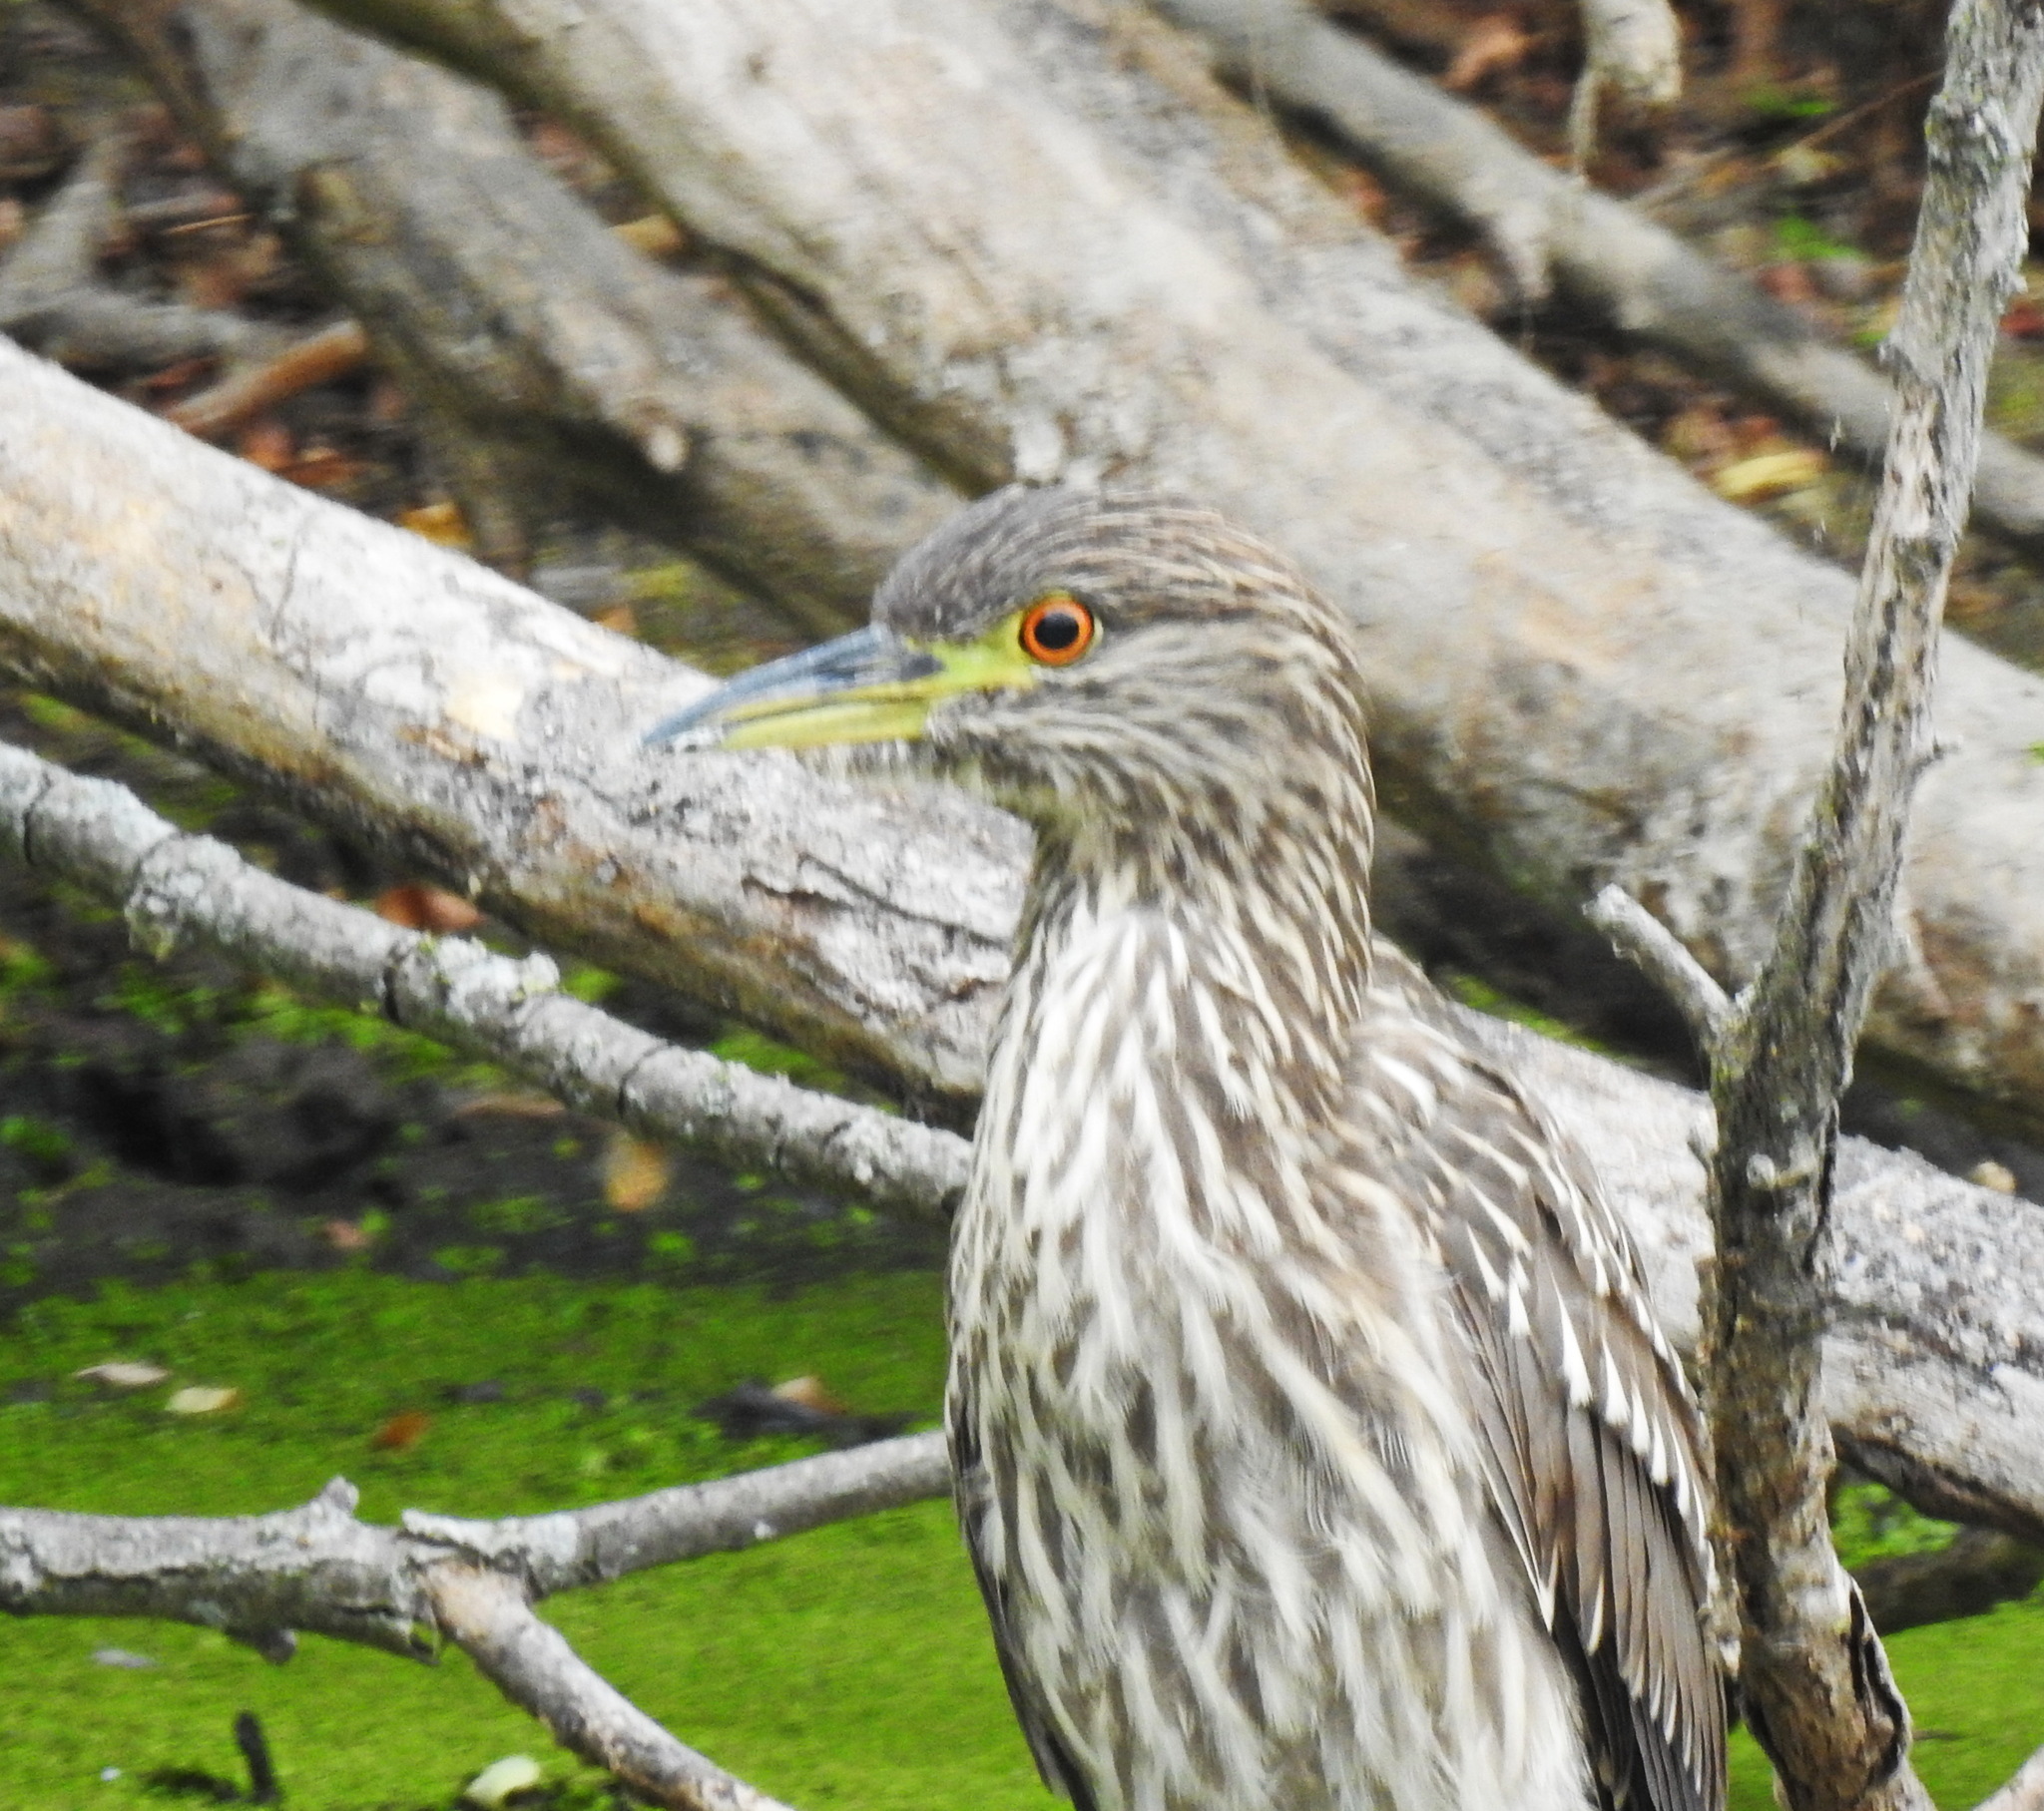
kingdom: Animalia
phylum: Chordata
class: Aves
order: Pelecaniformes
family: Ardeidae
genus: Nycticorax
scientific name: Nycticorax nycticorax
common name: Black-crowned night heron
